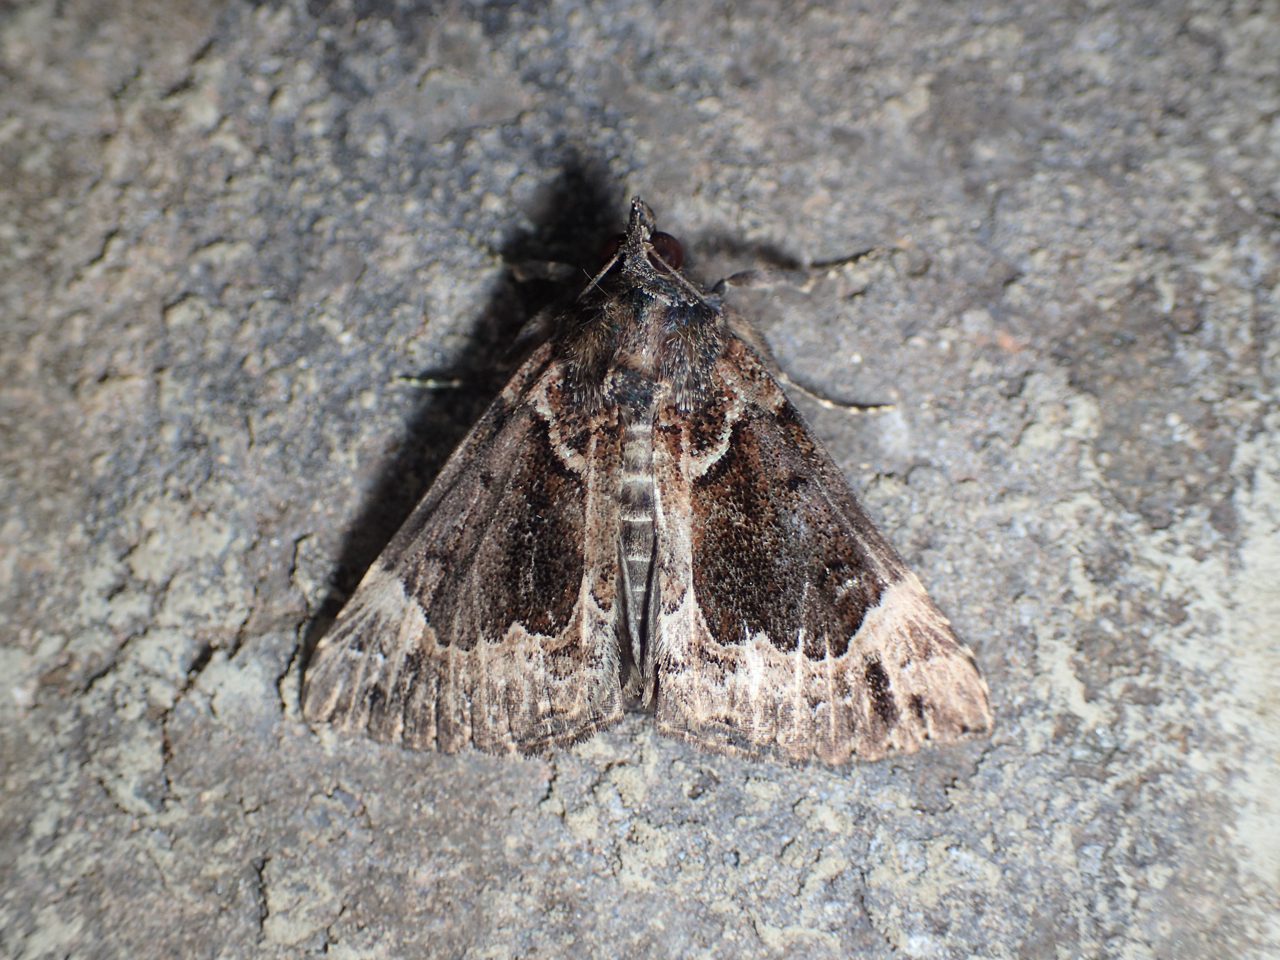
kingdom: Animalia
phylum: Arthropoda
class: Insecta
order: Lepidoptera
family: Erebidae
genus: Hypena
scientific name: Hypena palparia
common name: Mottled bomolocha moth
